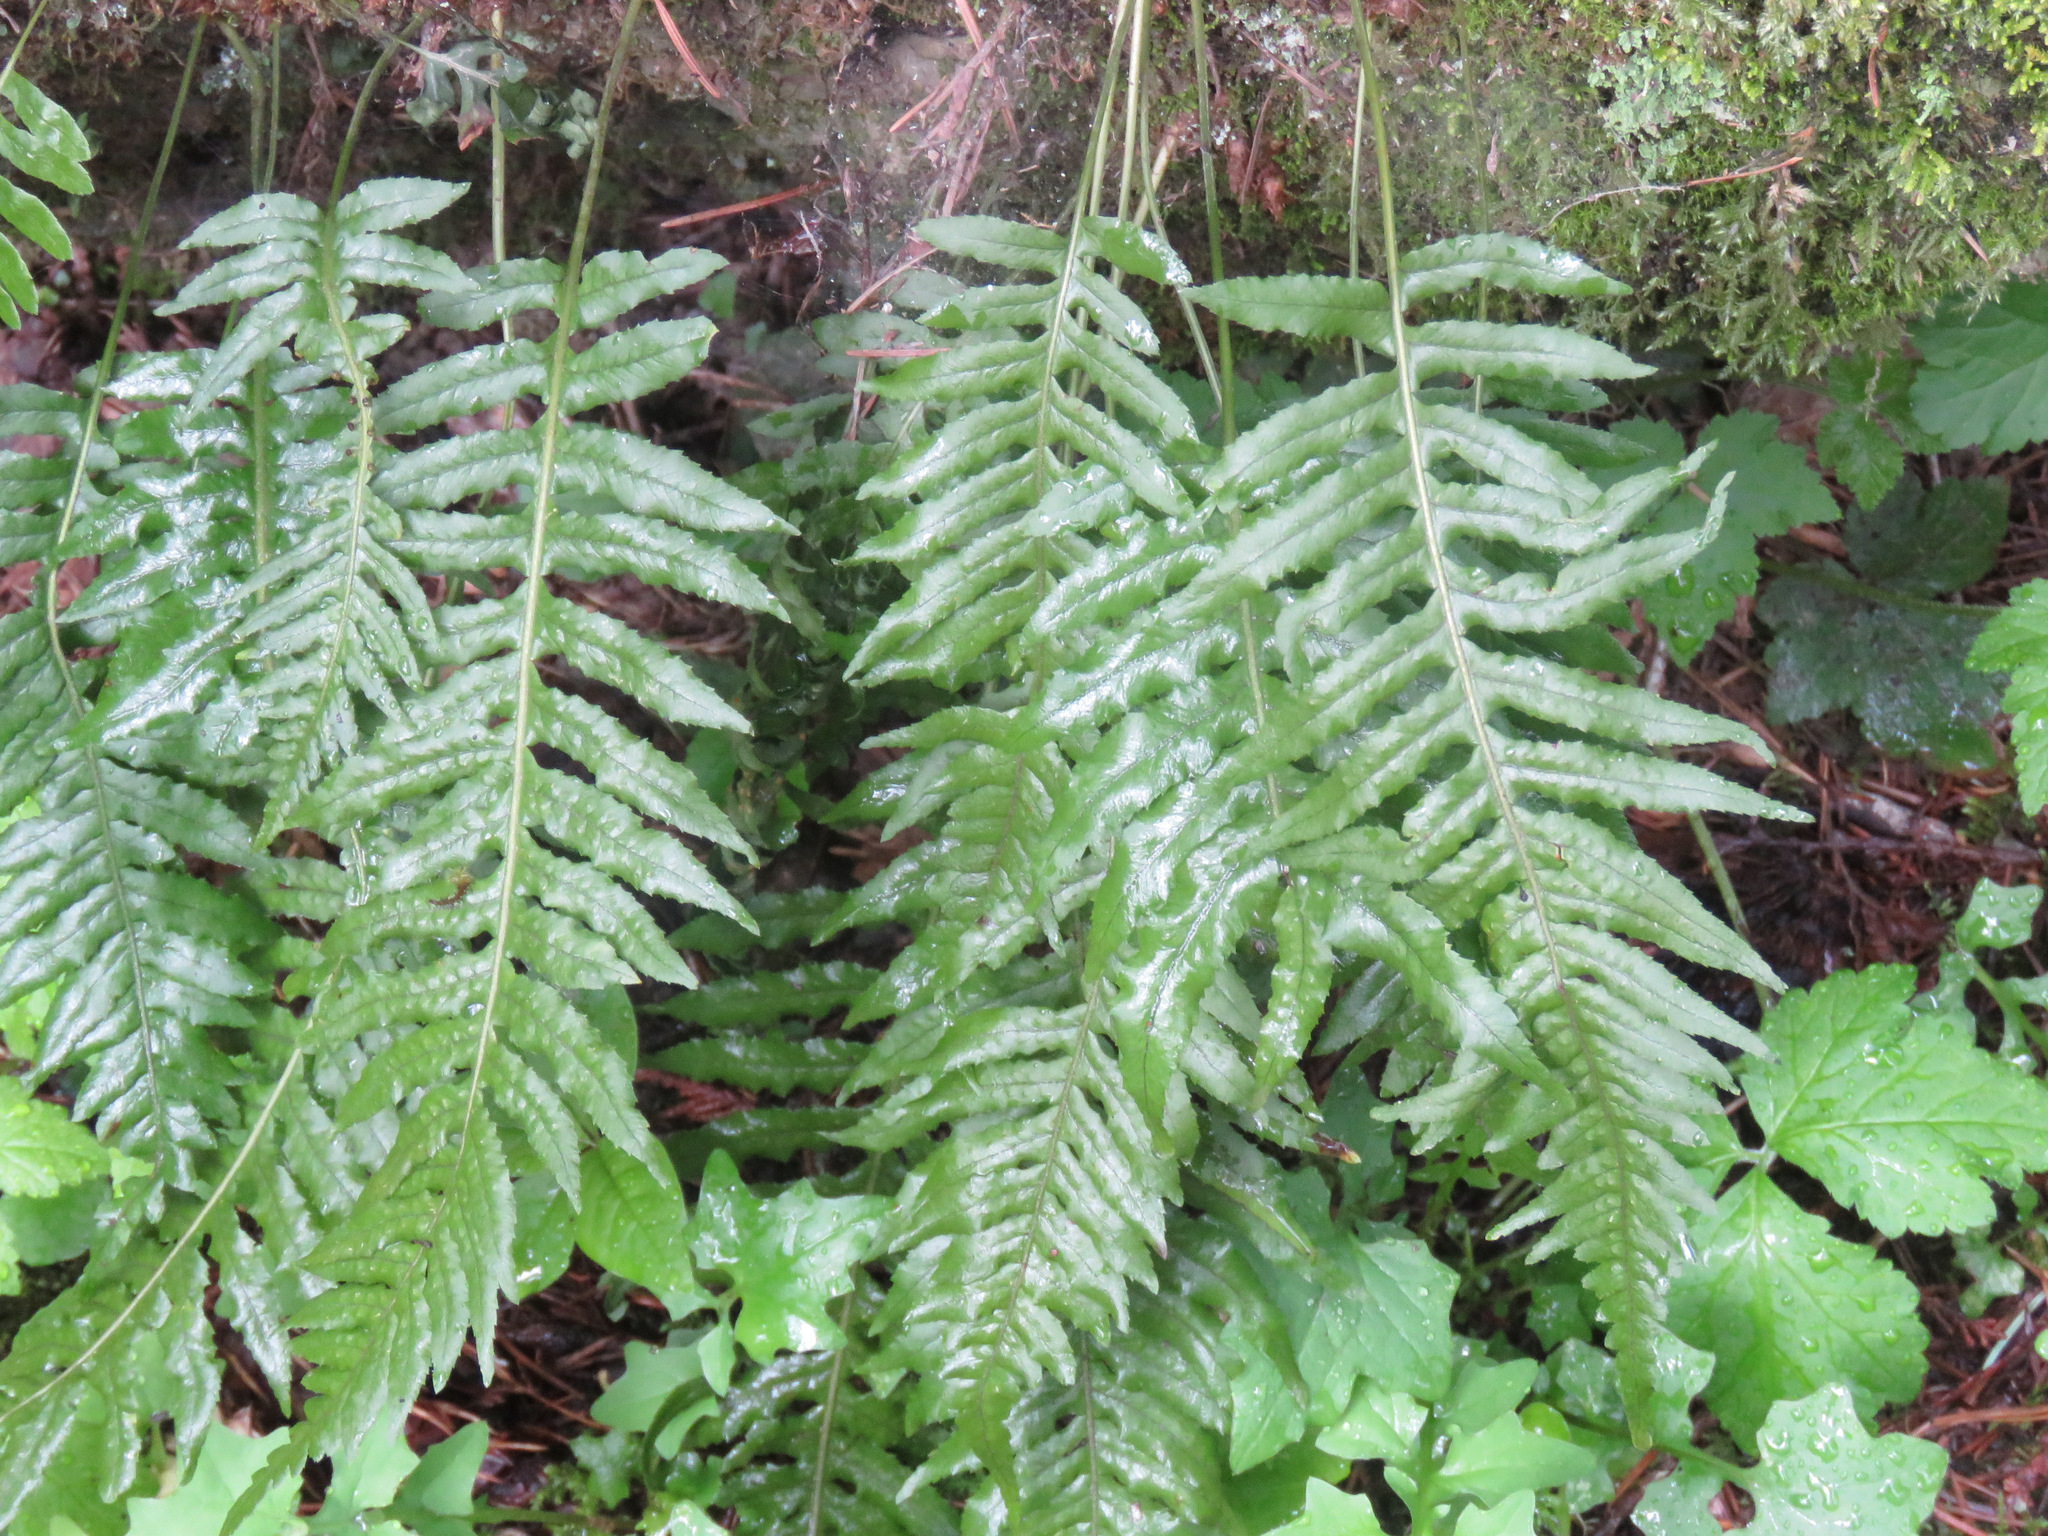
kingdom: Plantae
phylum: Tracheophyta
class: Polypodiopsida
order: Polypodiales
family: Polypodiaceae
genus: Polypodium
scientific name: Polypodium glycyrrhiza
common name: Licorice fern
